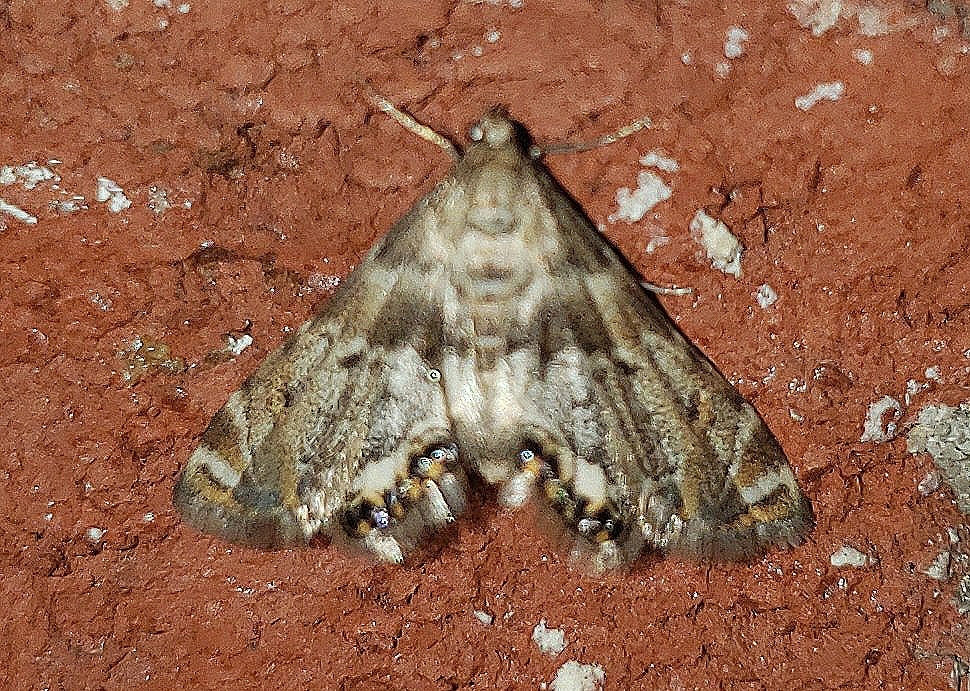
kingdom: Animalia
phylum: Arthropoda
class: Insecta
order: Lepidoptera
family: Crambidae
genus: Petrophila
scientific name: Petrophila fulicalis
